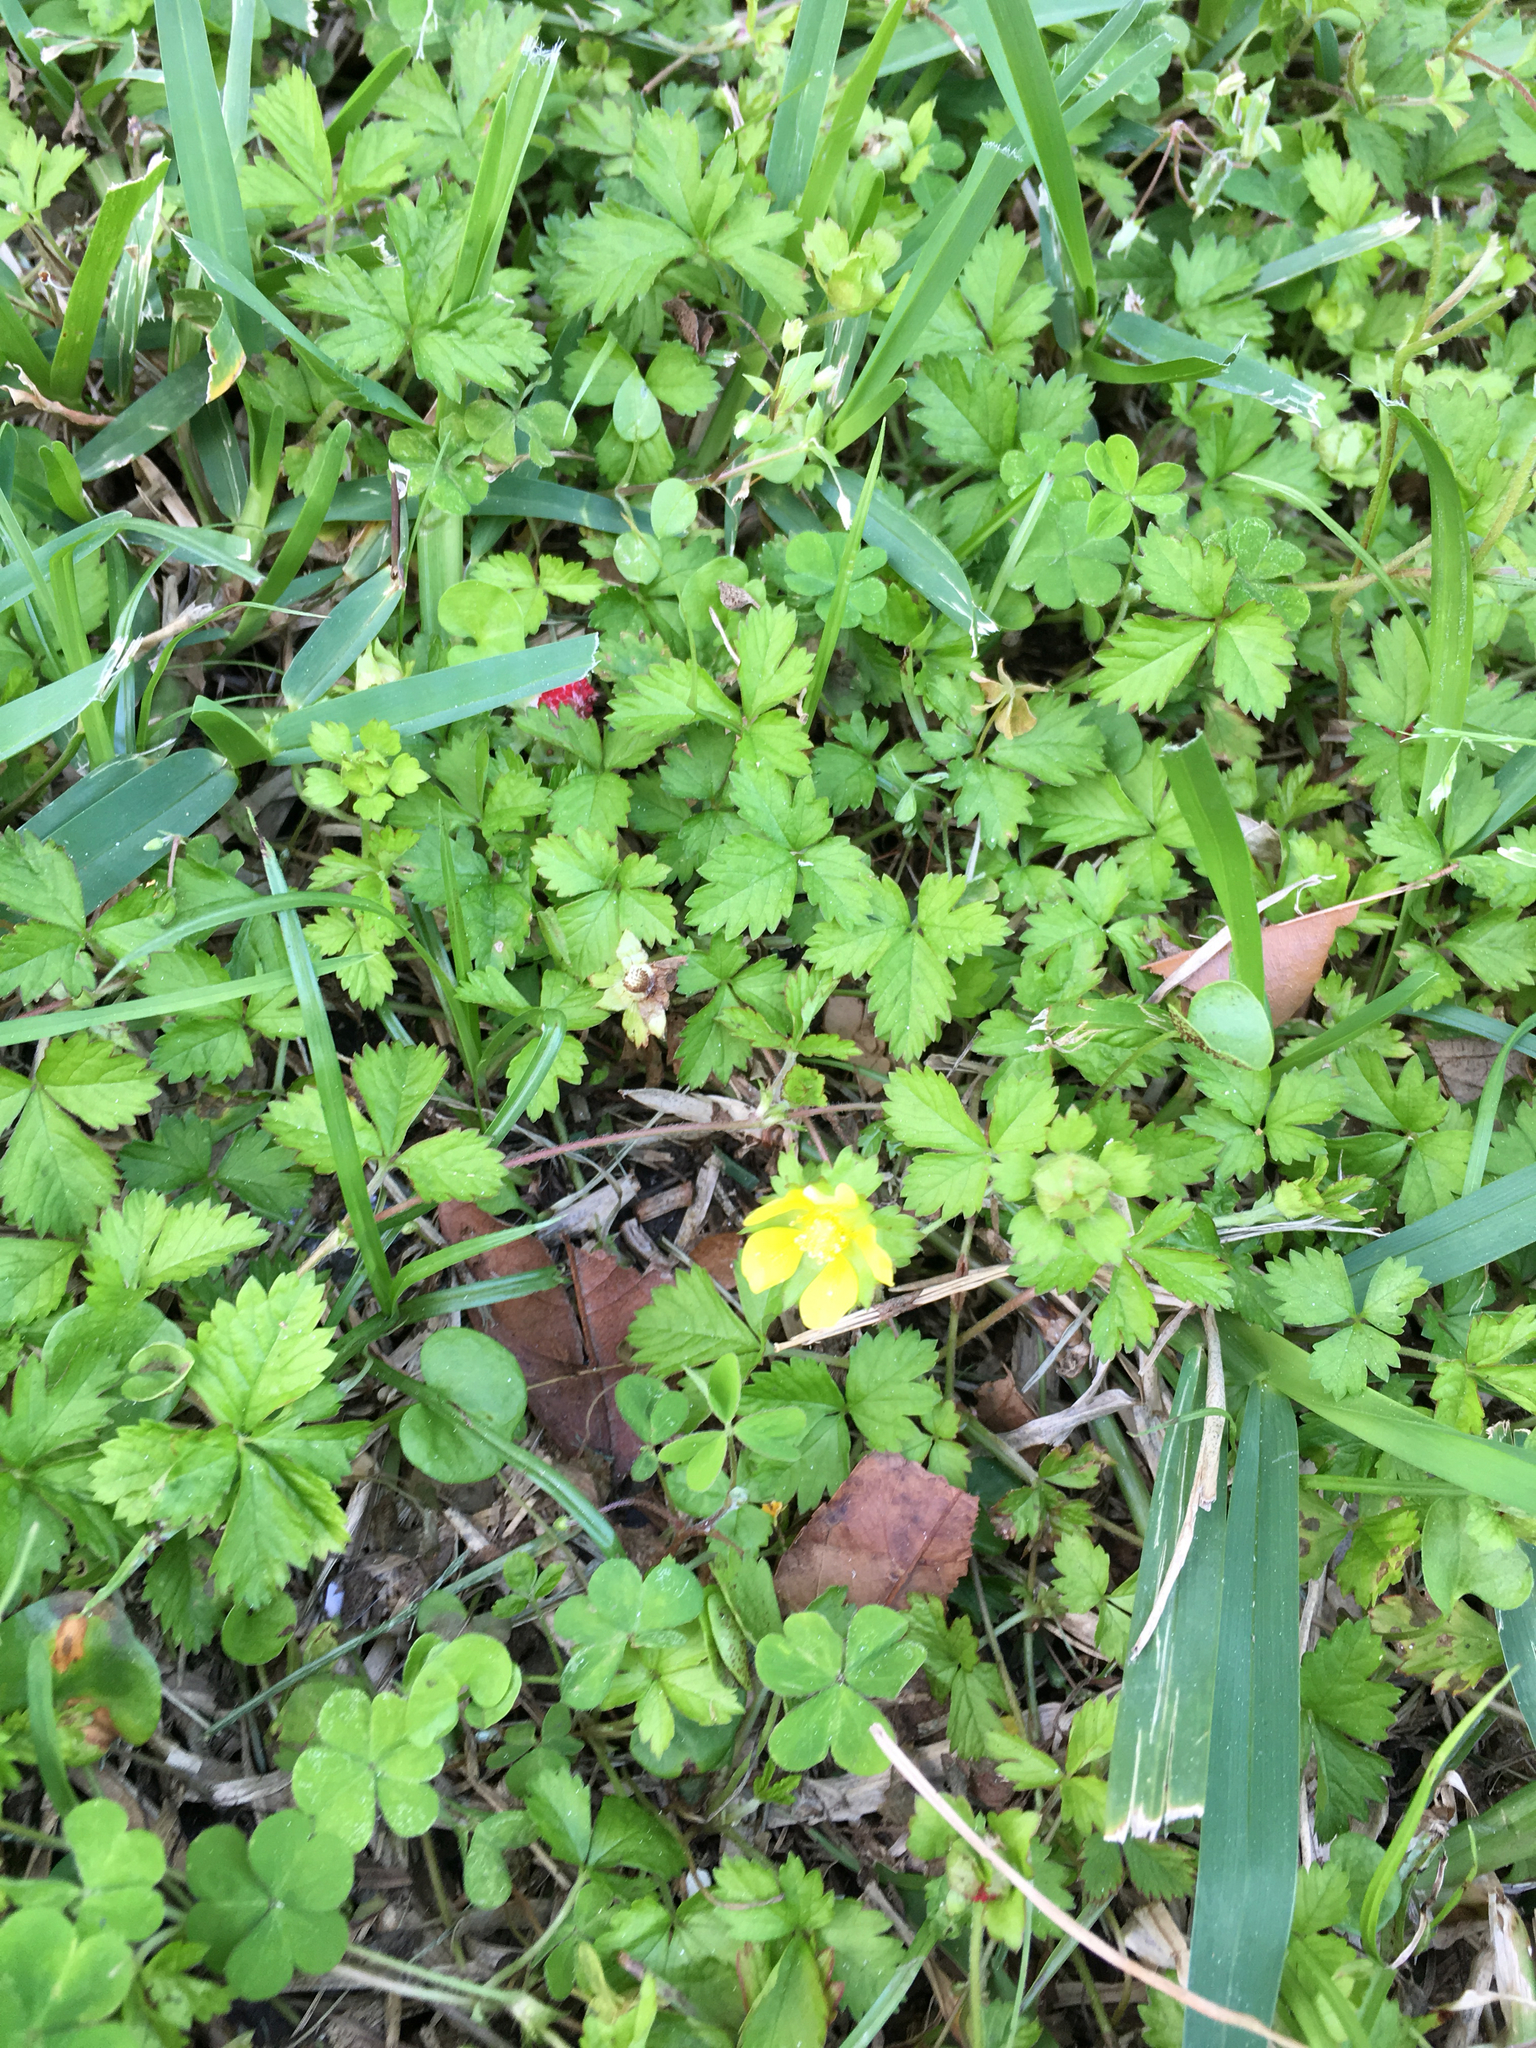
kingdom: Plantae
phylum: Tracheophyta
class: Magnoliopsida
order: Rosales
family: Rosaceae
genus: Potentilla
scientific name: Potentilla indica
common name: Yellow-flowered strawberry
